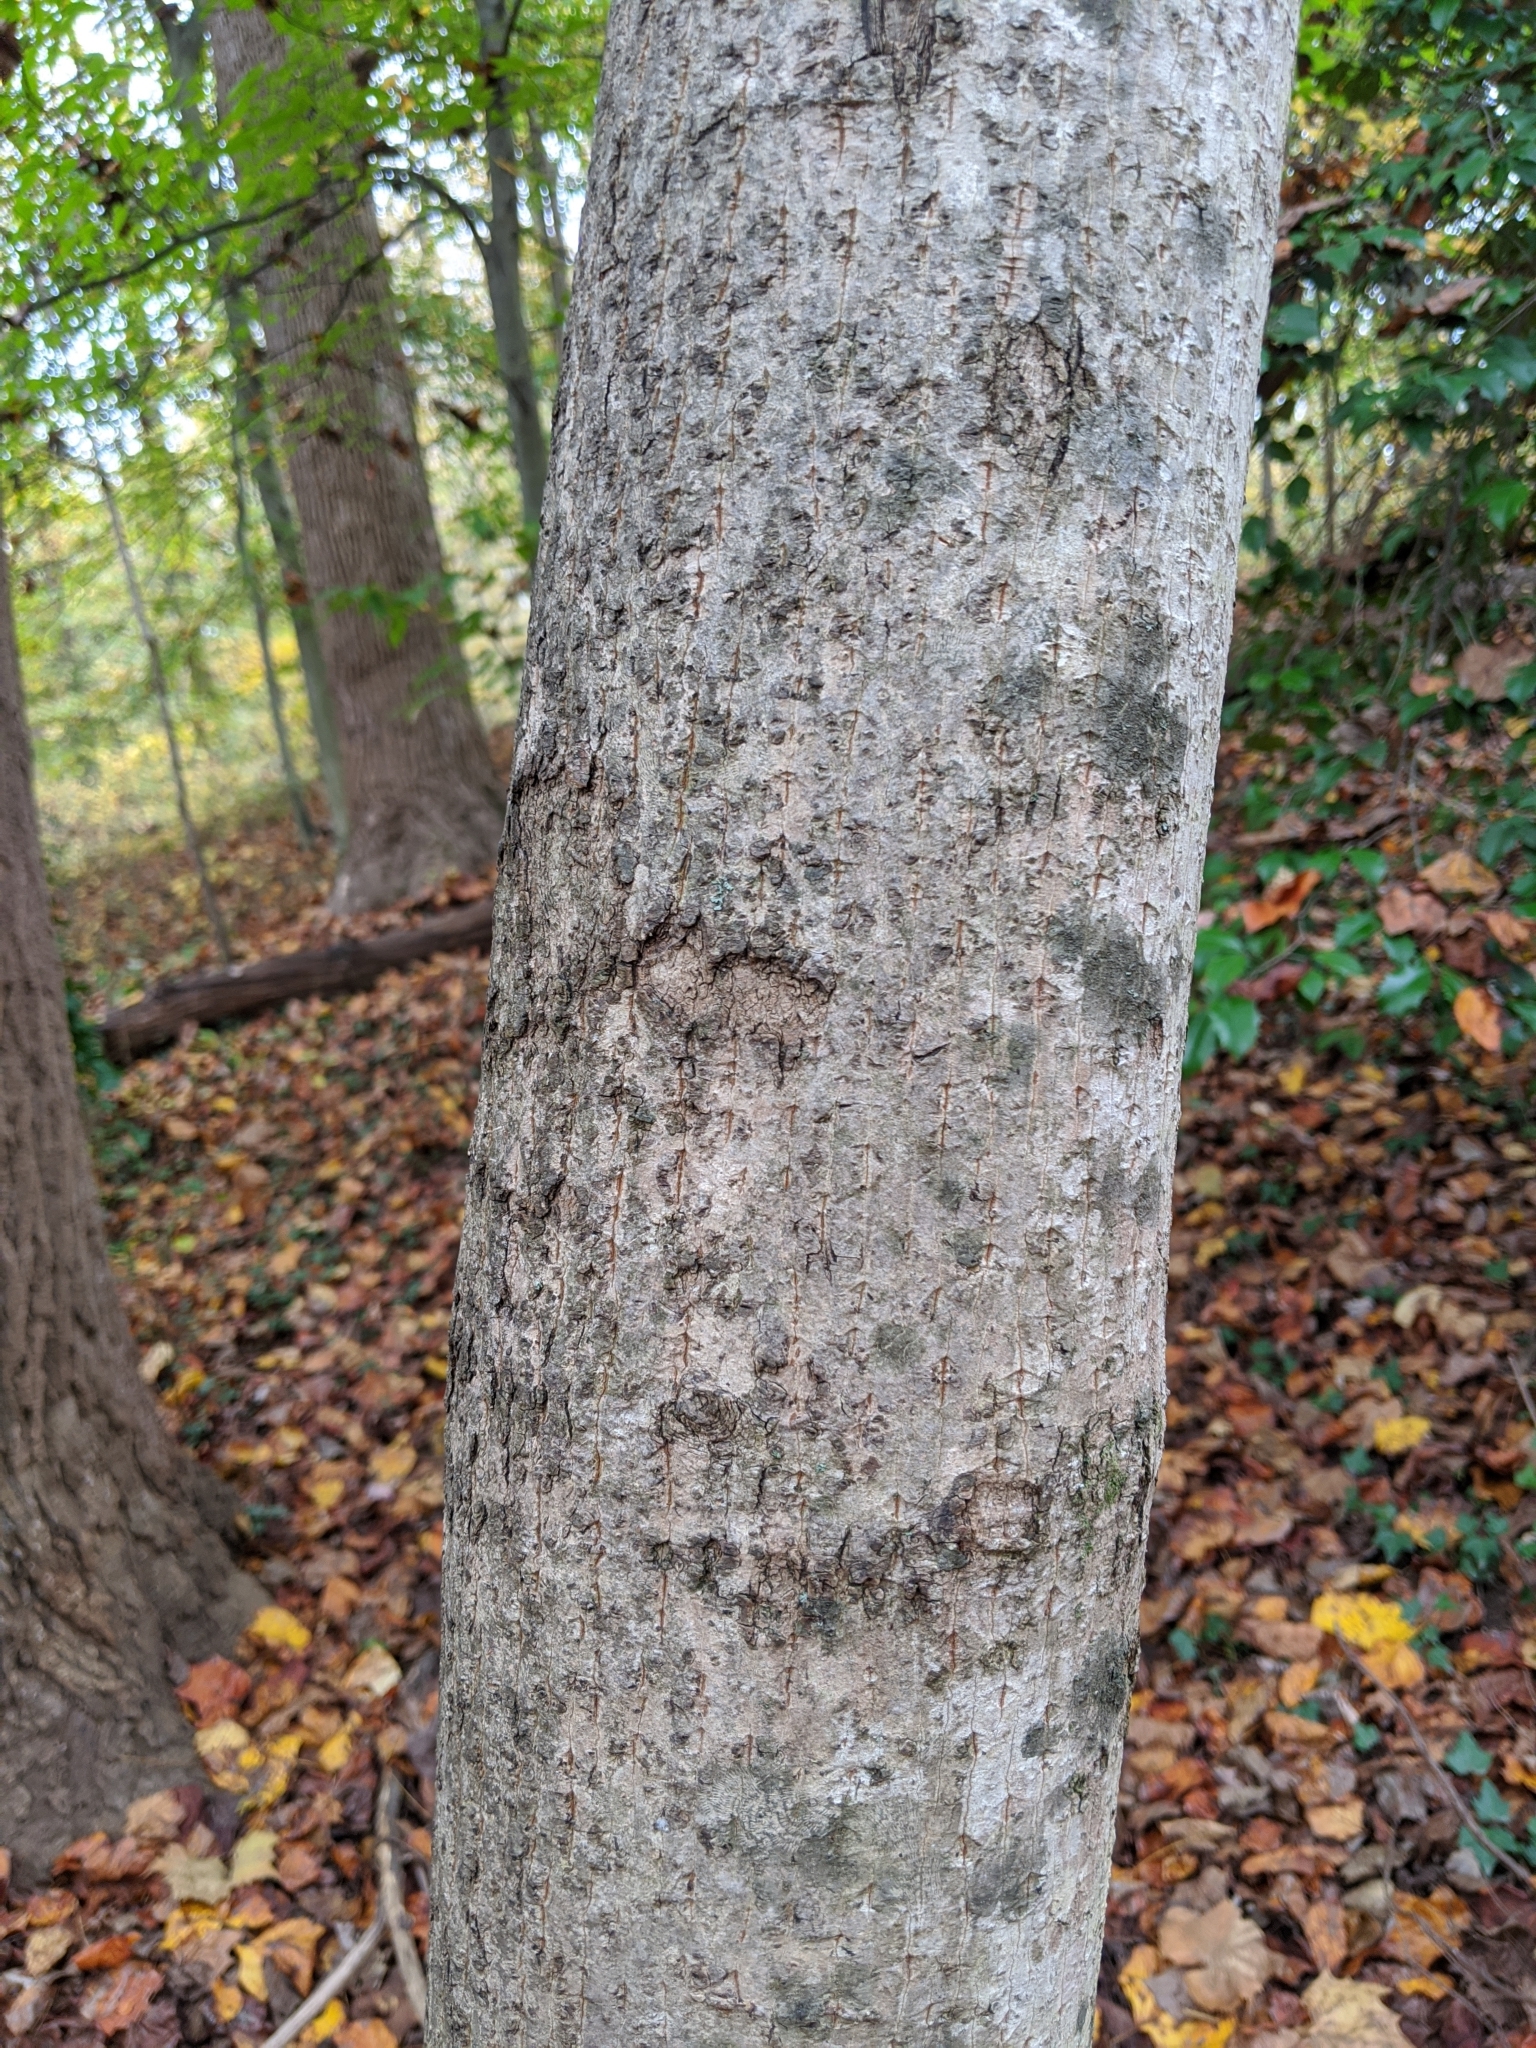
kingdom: Plantae
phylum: Tracheophyta
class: Magnoliopsida
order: Sapindales
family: Sapindaceae
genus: Acer
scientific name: Acer platanoides
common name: Norway maple
